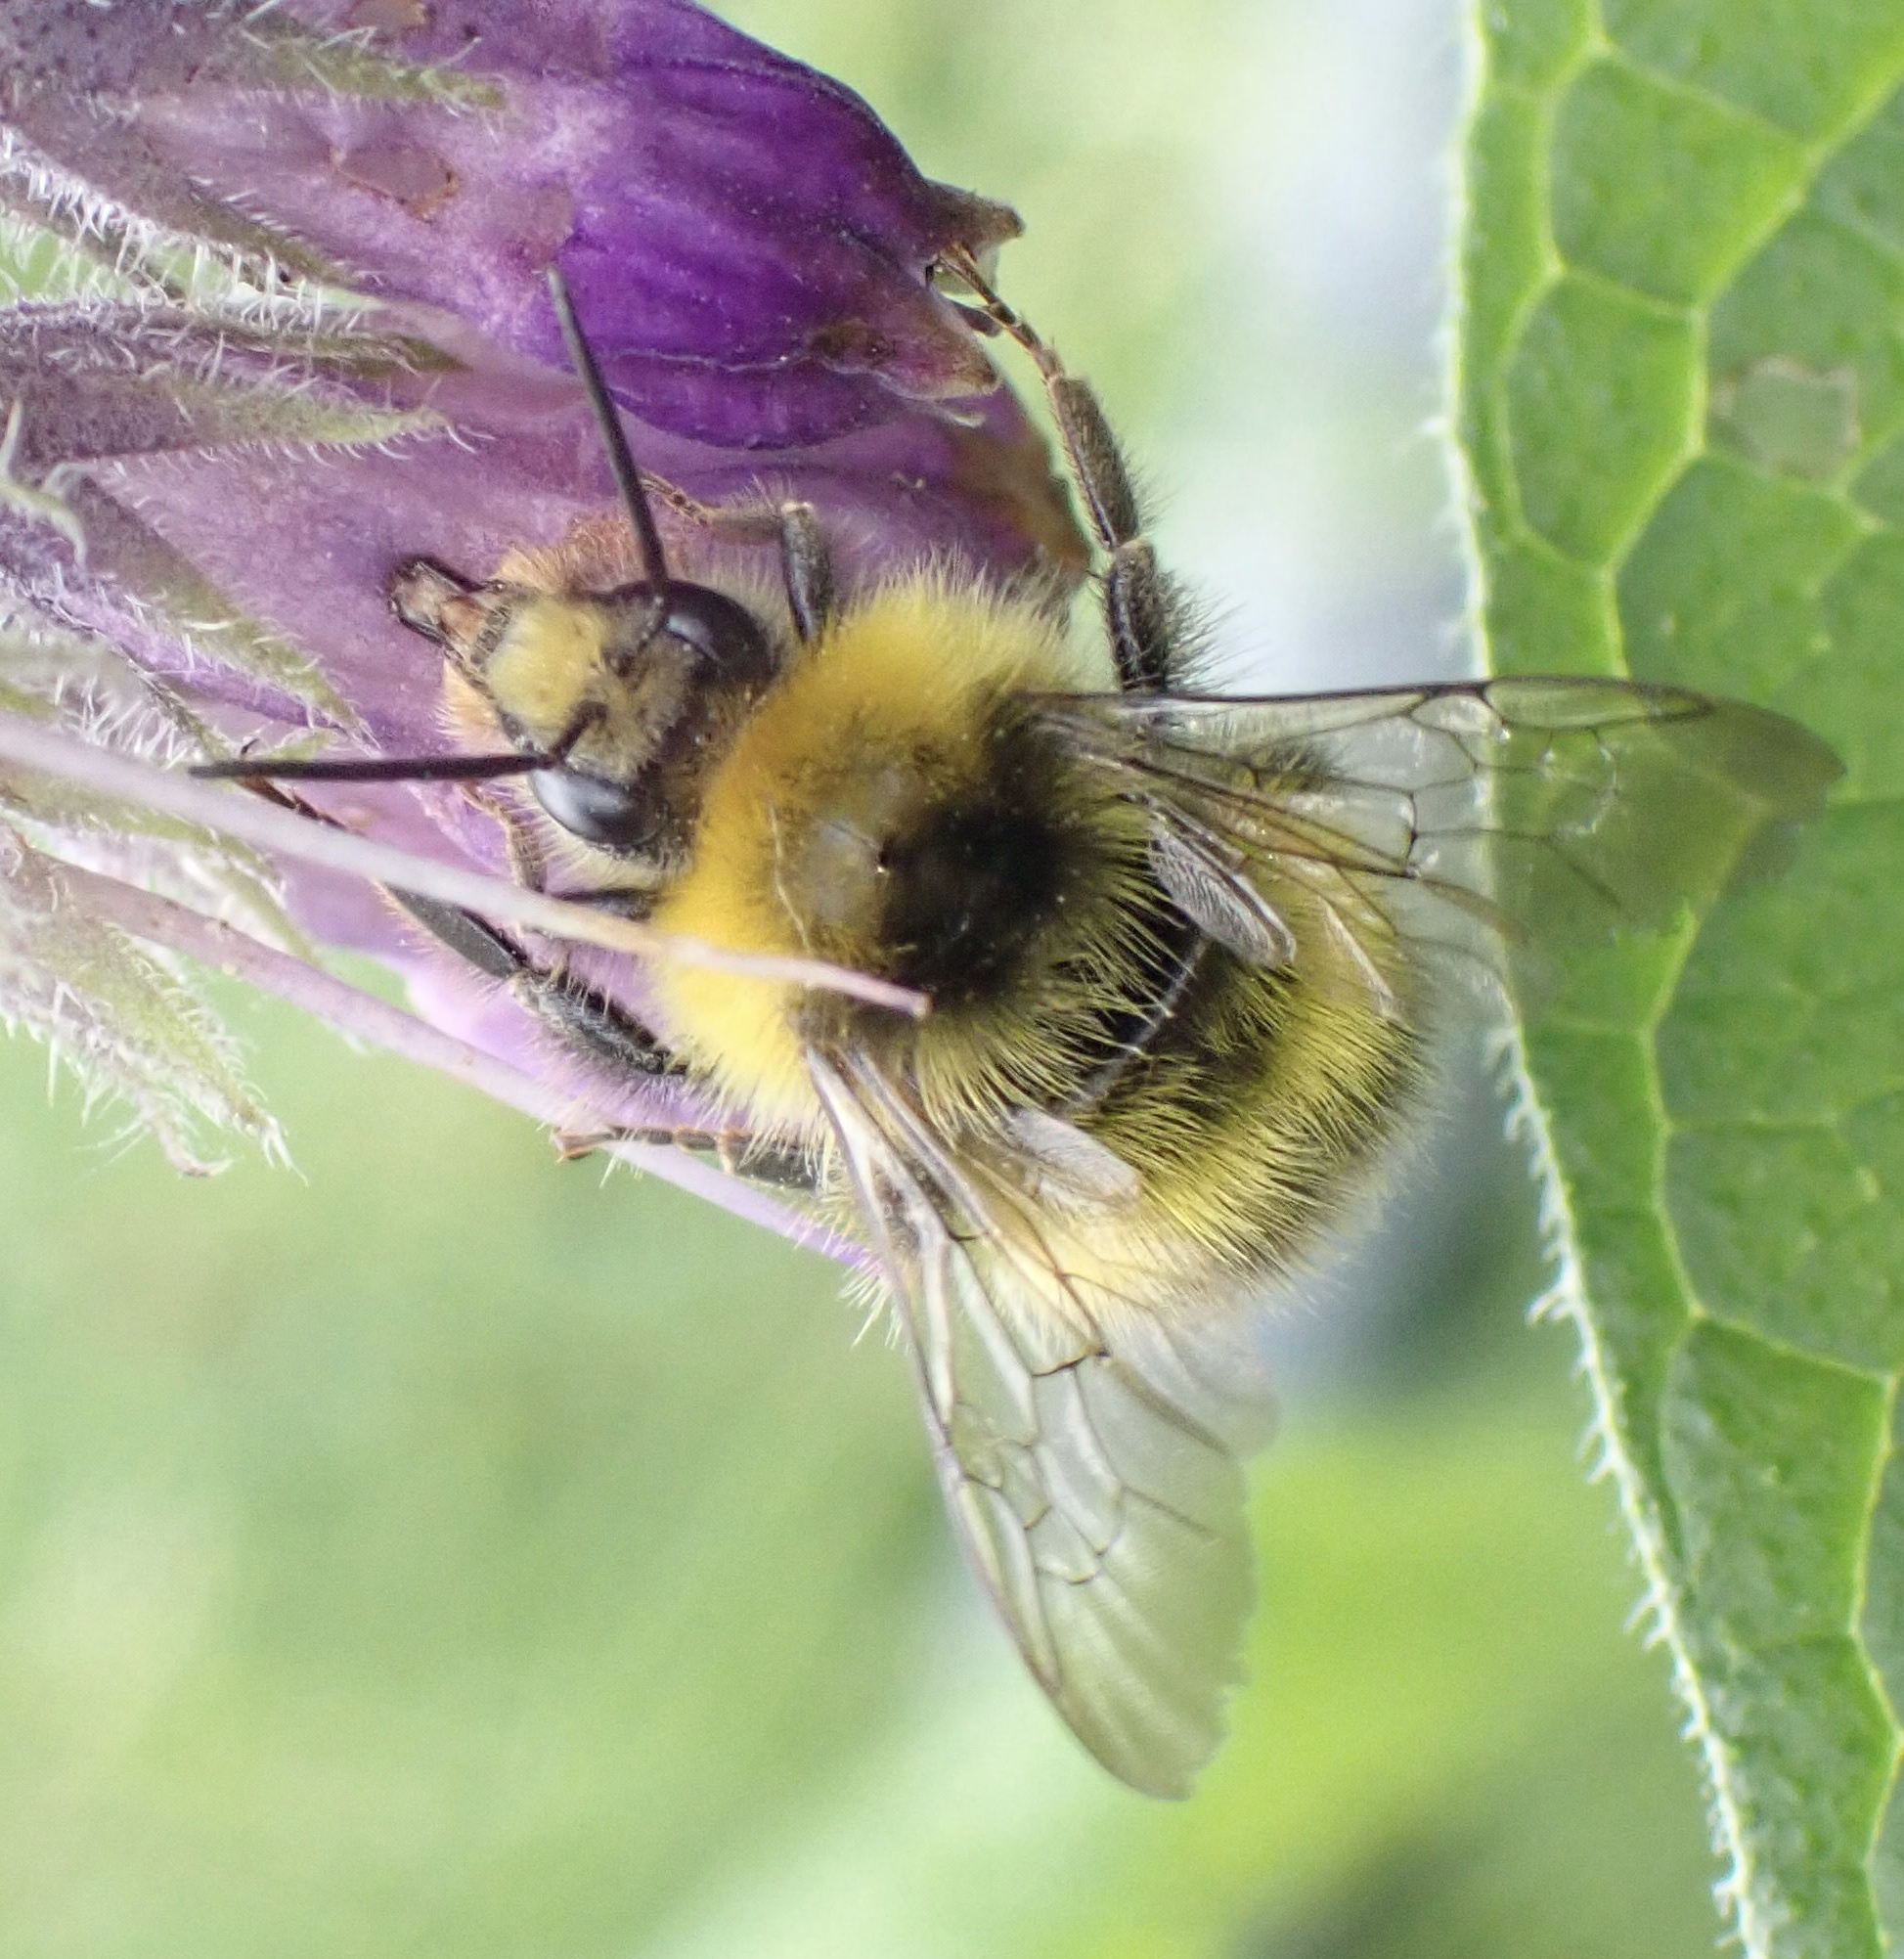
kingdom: Animalia
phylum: Arthropoda
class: Insecta
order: Hymenoptera
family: Apidae
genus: Bombus
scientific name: Bombus pratorum
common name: Early humble-bee
